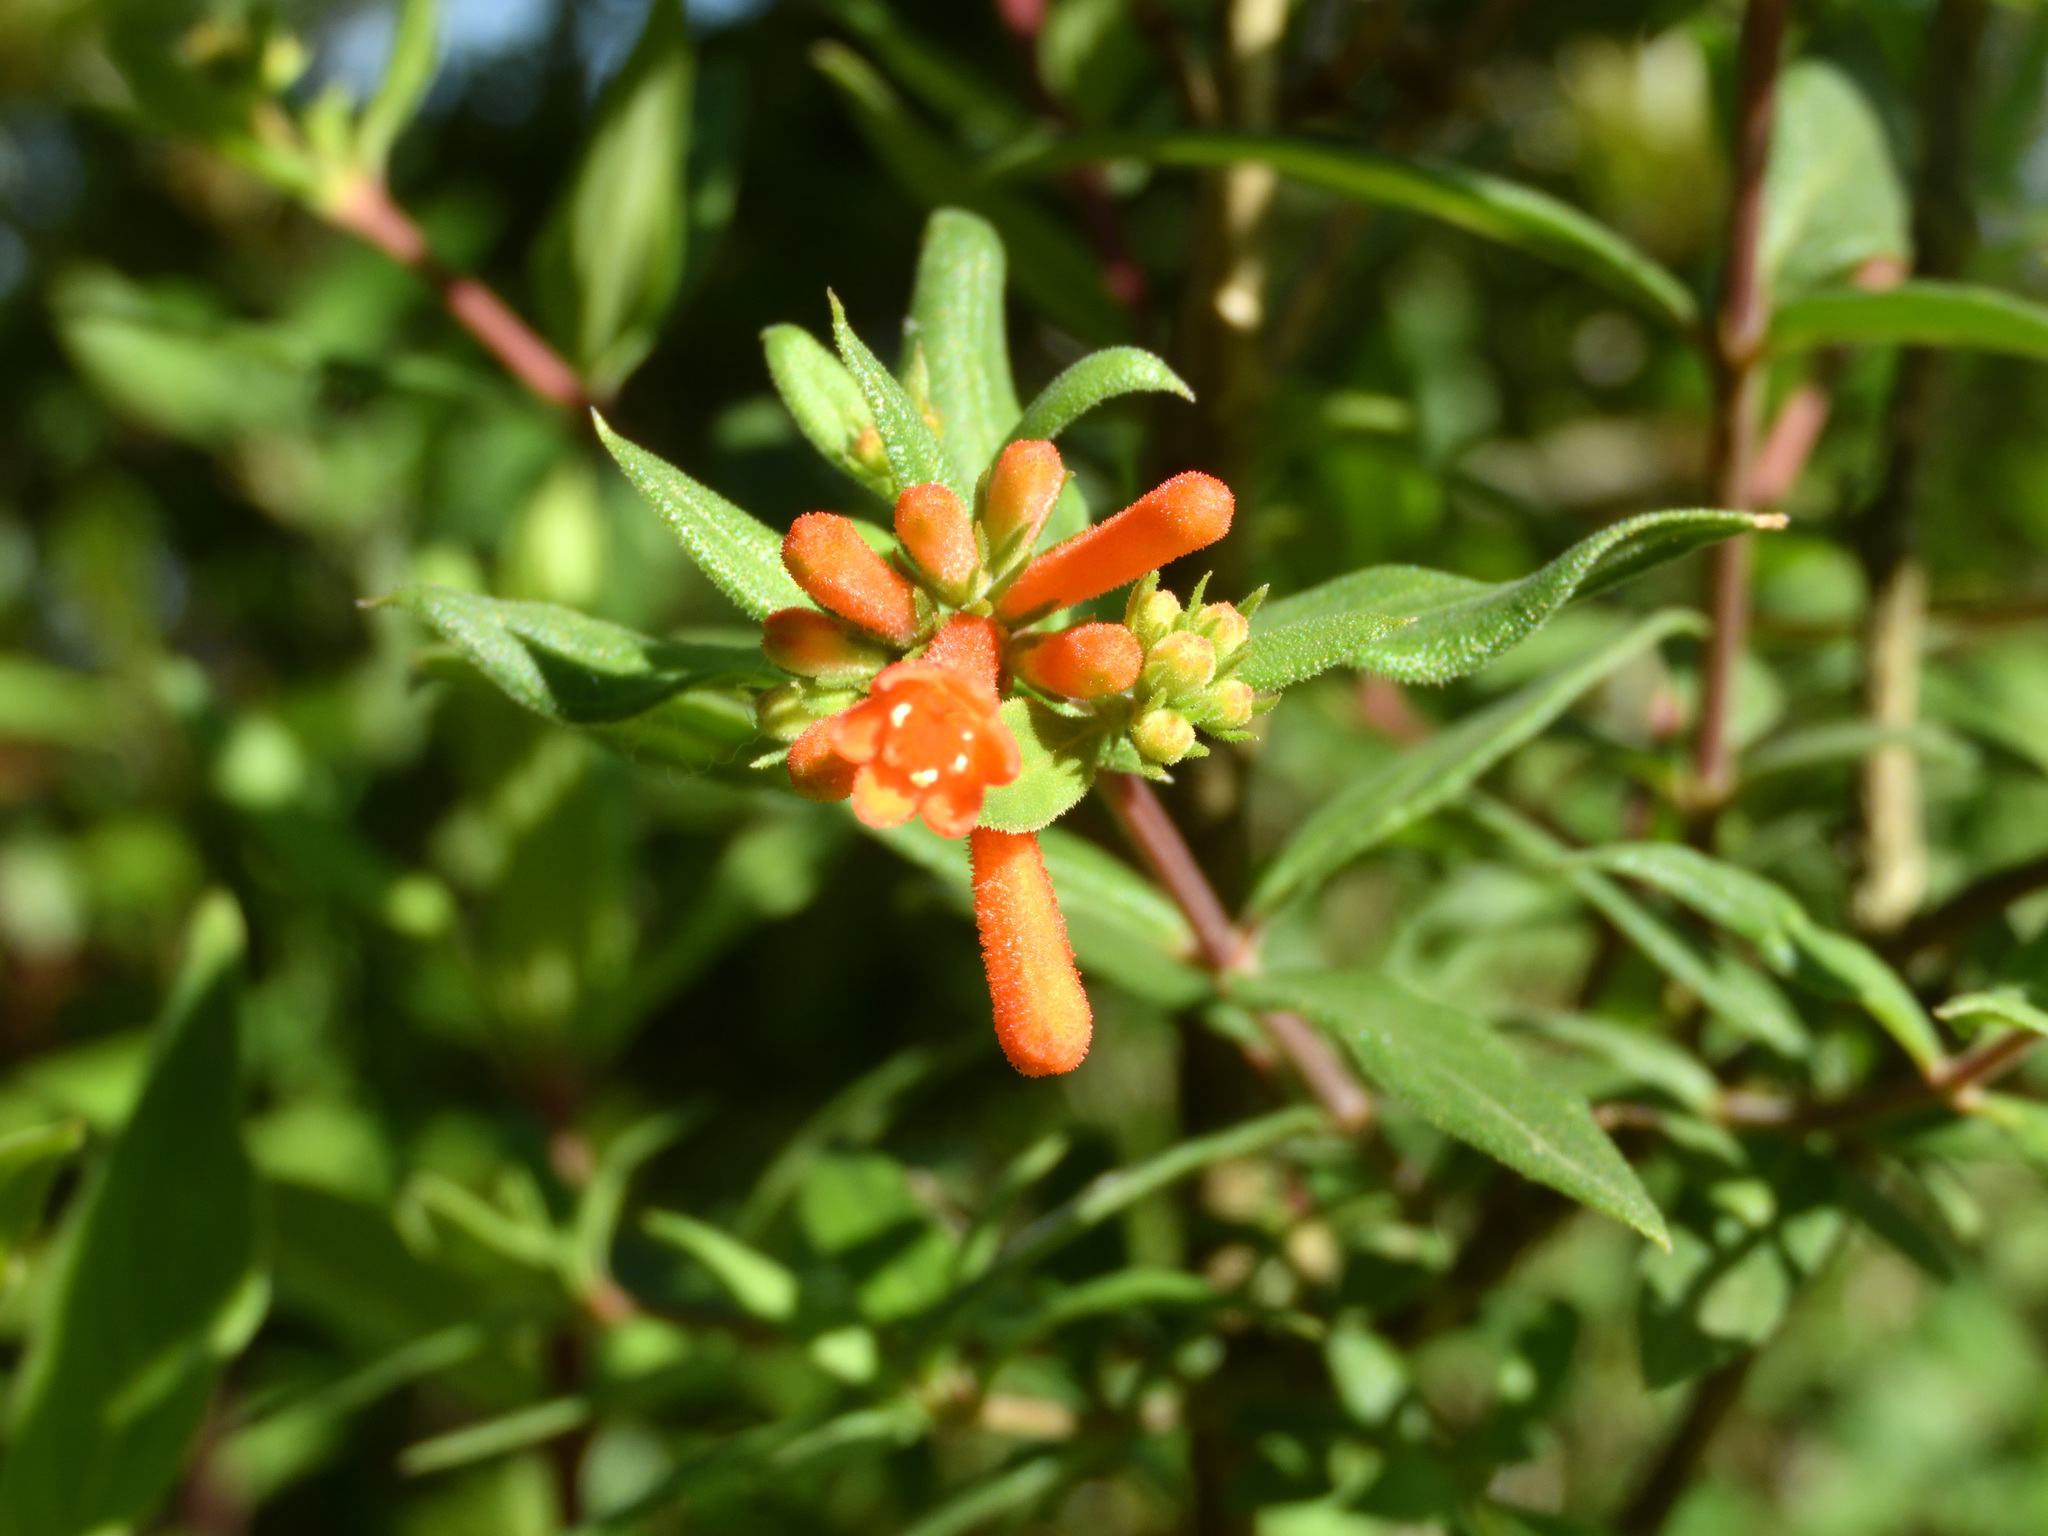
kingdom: Plantae
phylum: Tracheophyta
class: Magnoliopsida
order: Gentianales
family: Rubiaceae
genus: Bouvardia
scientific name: Bouvardia ternifolia
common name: Scarlet bouvardia
